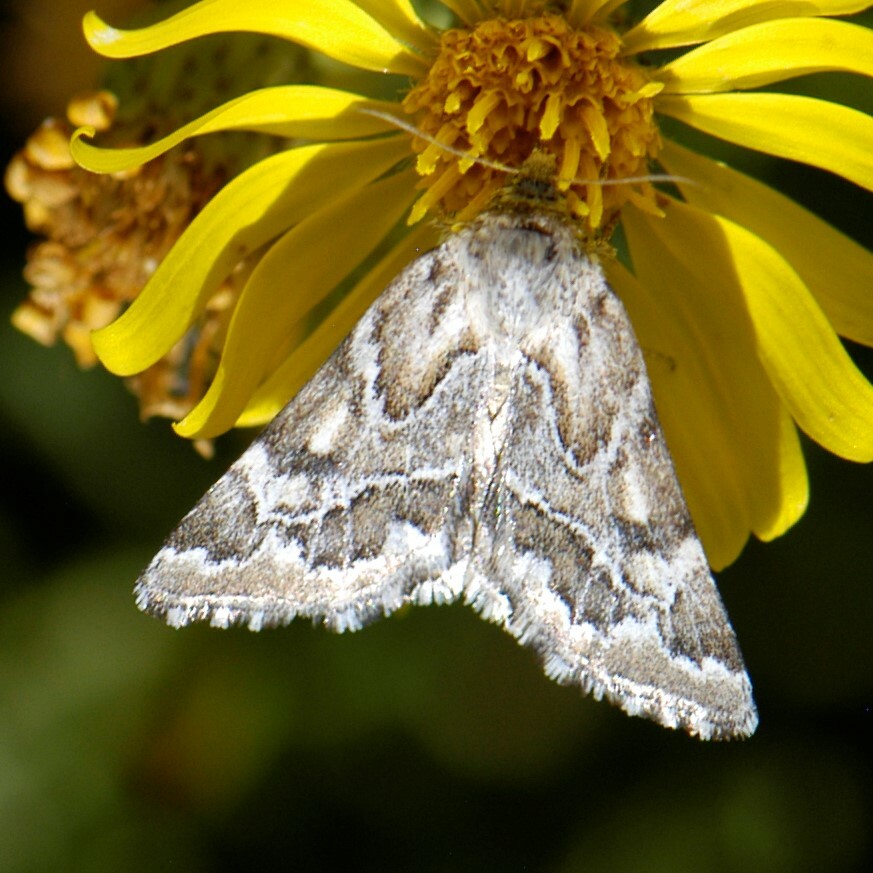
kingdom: Animalia
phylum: Arthropoda
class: Insecta
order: Lepidoptera
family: Noctuidae
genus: Schinia
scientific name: Schinia acutilinea
